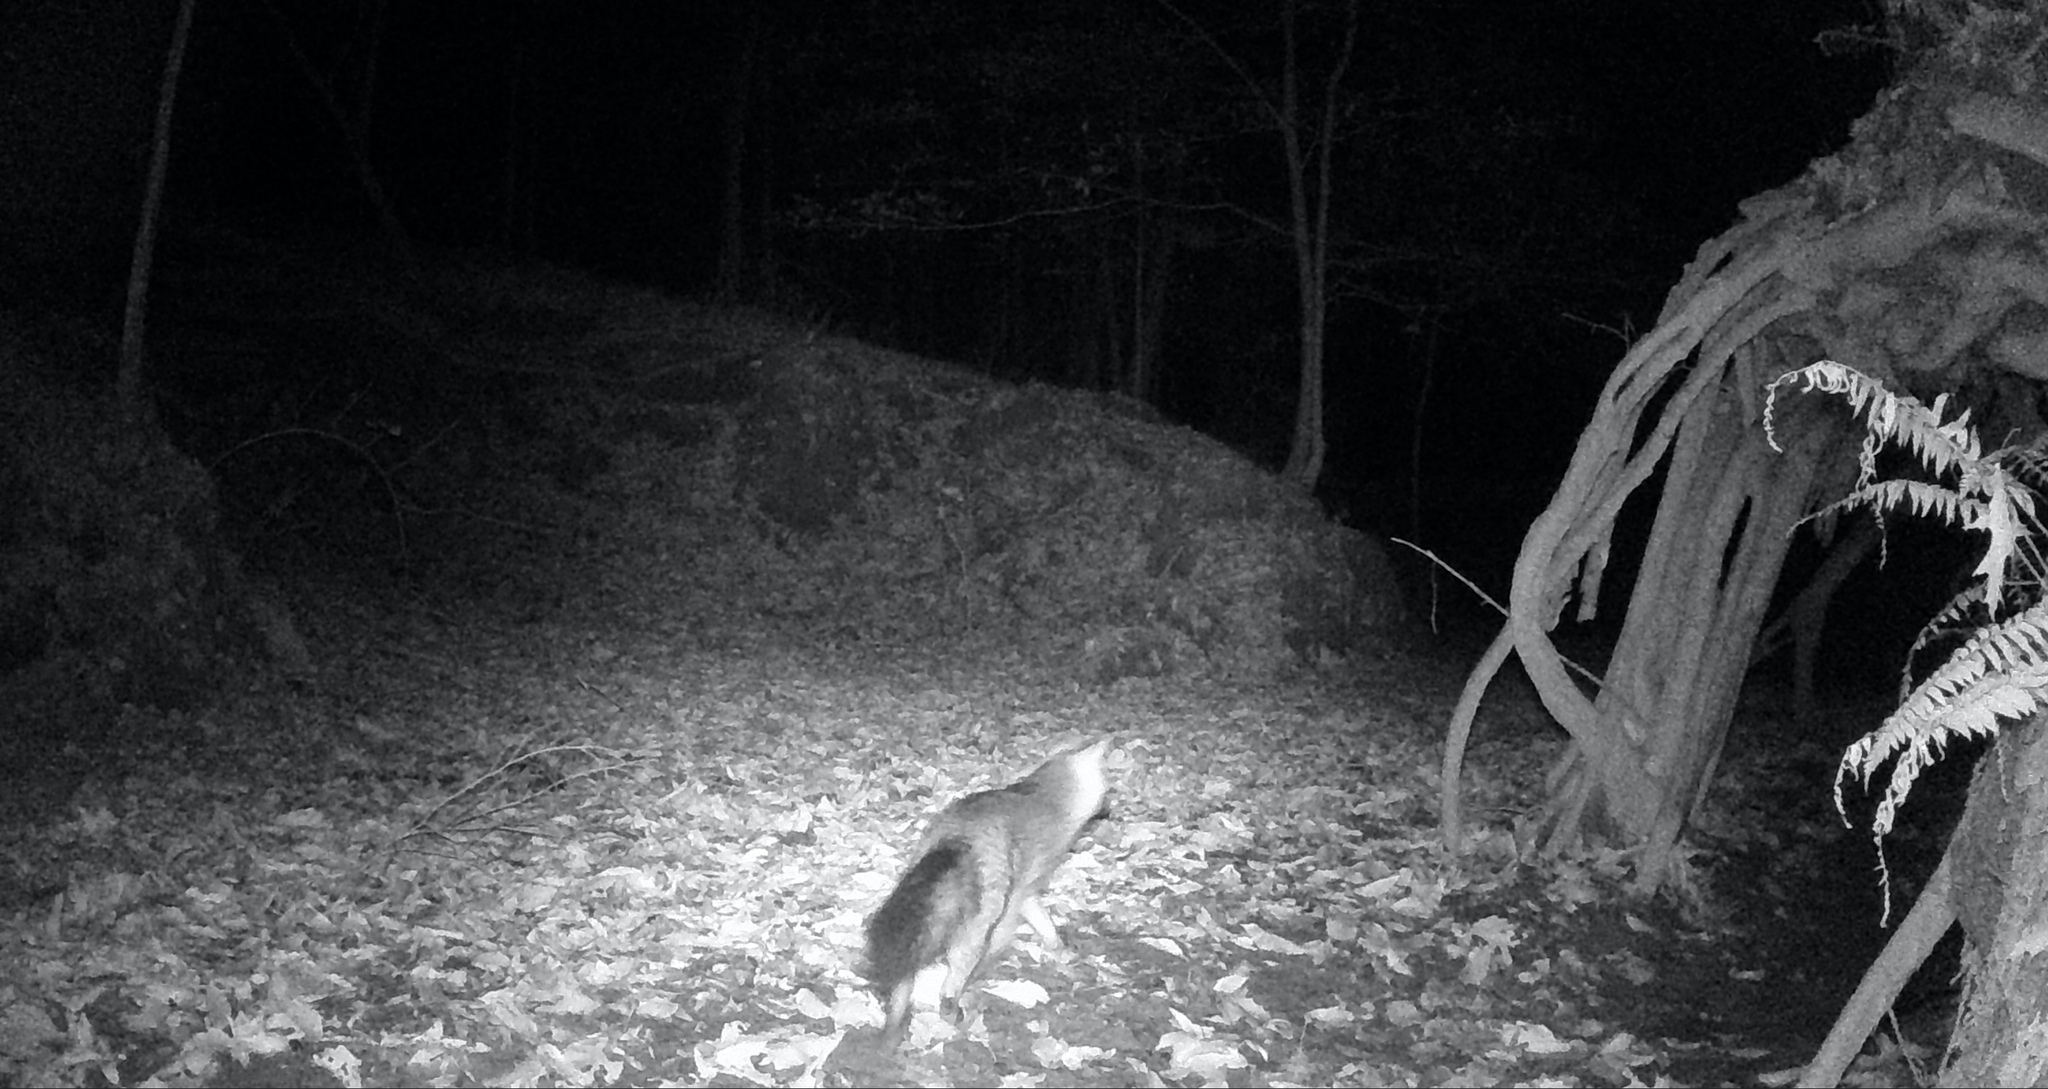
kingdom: Animalia
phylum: Chordata
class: Mammalia
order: Carnivora
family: Canidae
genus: Urocyon
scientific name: Urocyon cinereoargenteus
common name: Gray fox
